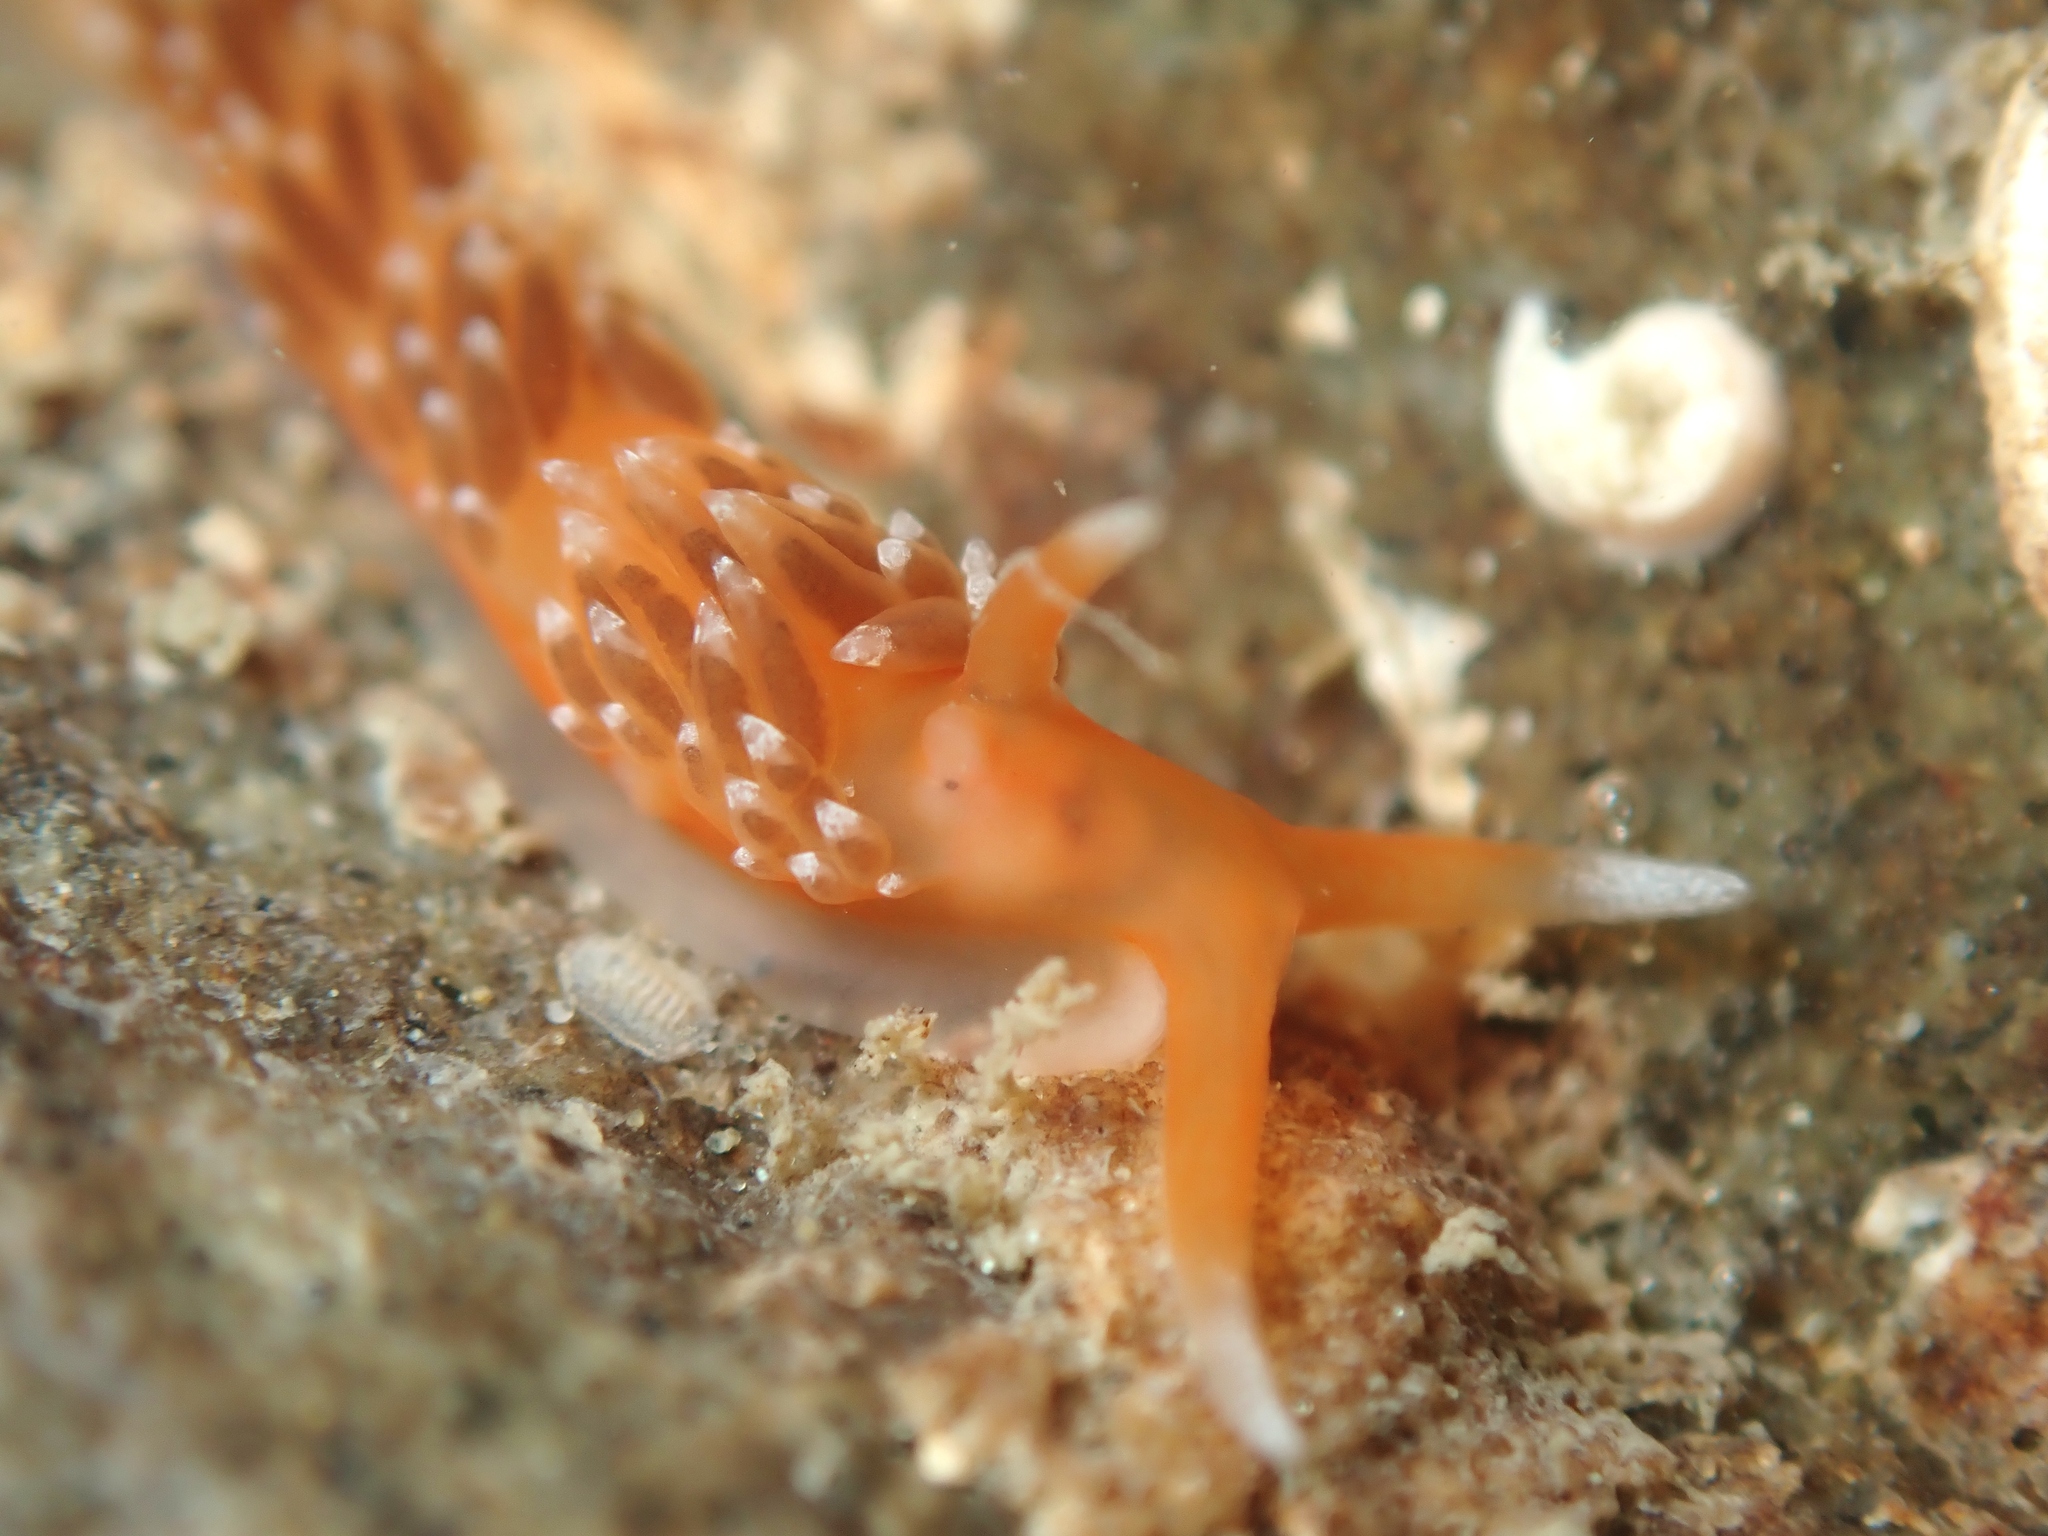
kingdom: Animalia
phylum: Mollusca
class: Gastropoda
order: Nudibranchia
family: Facelinidae
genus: Phidiana
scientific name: Phidiana milleri
